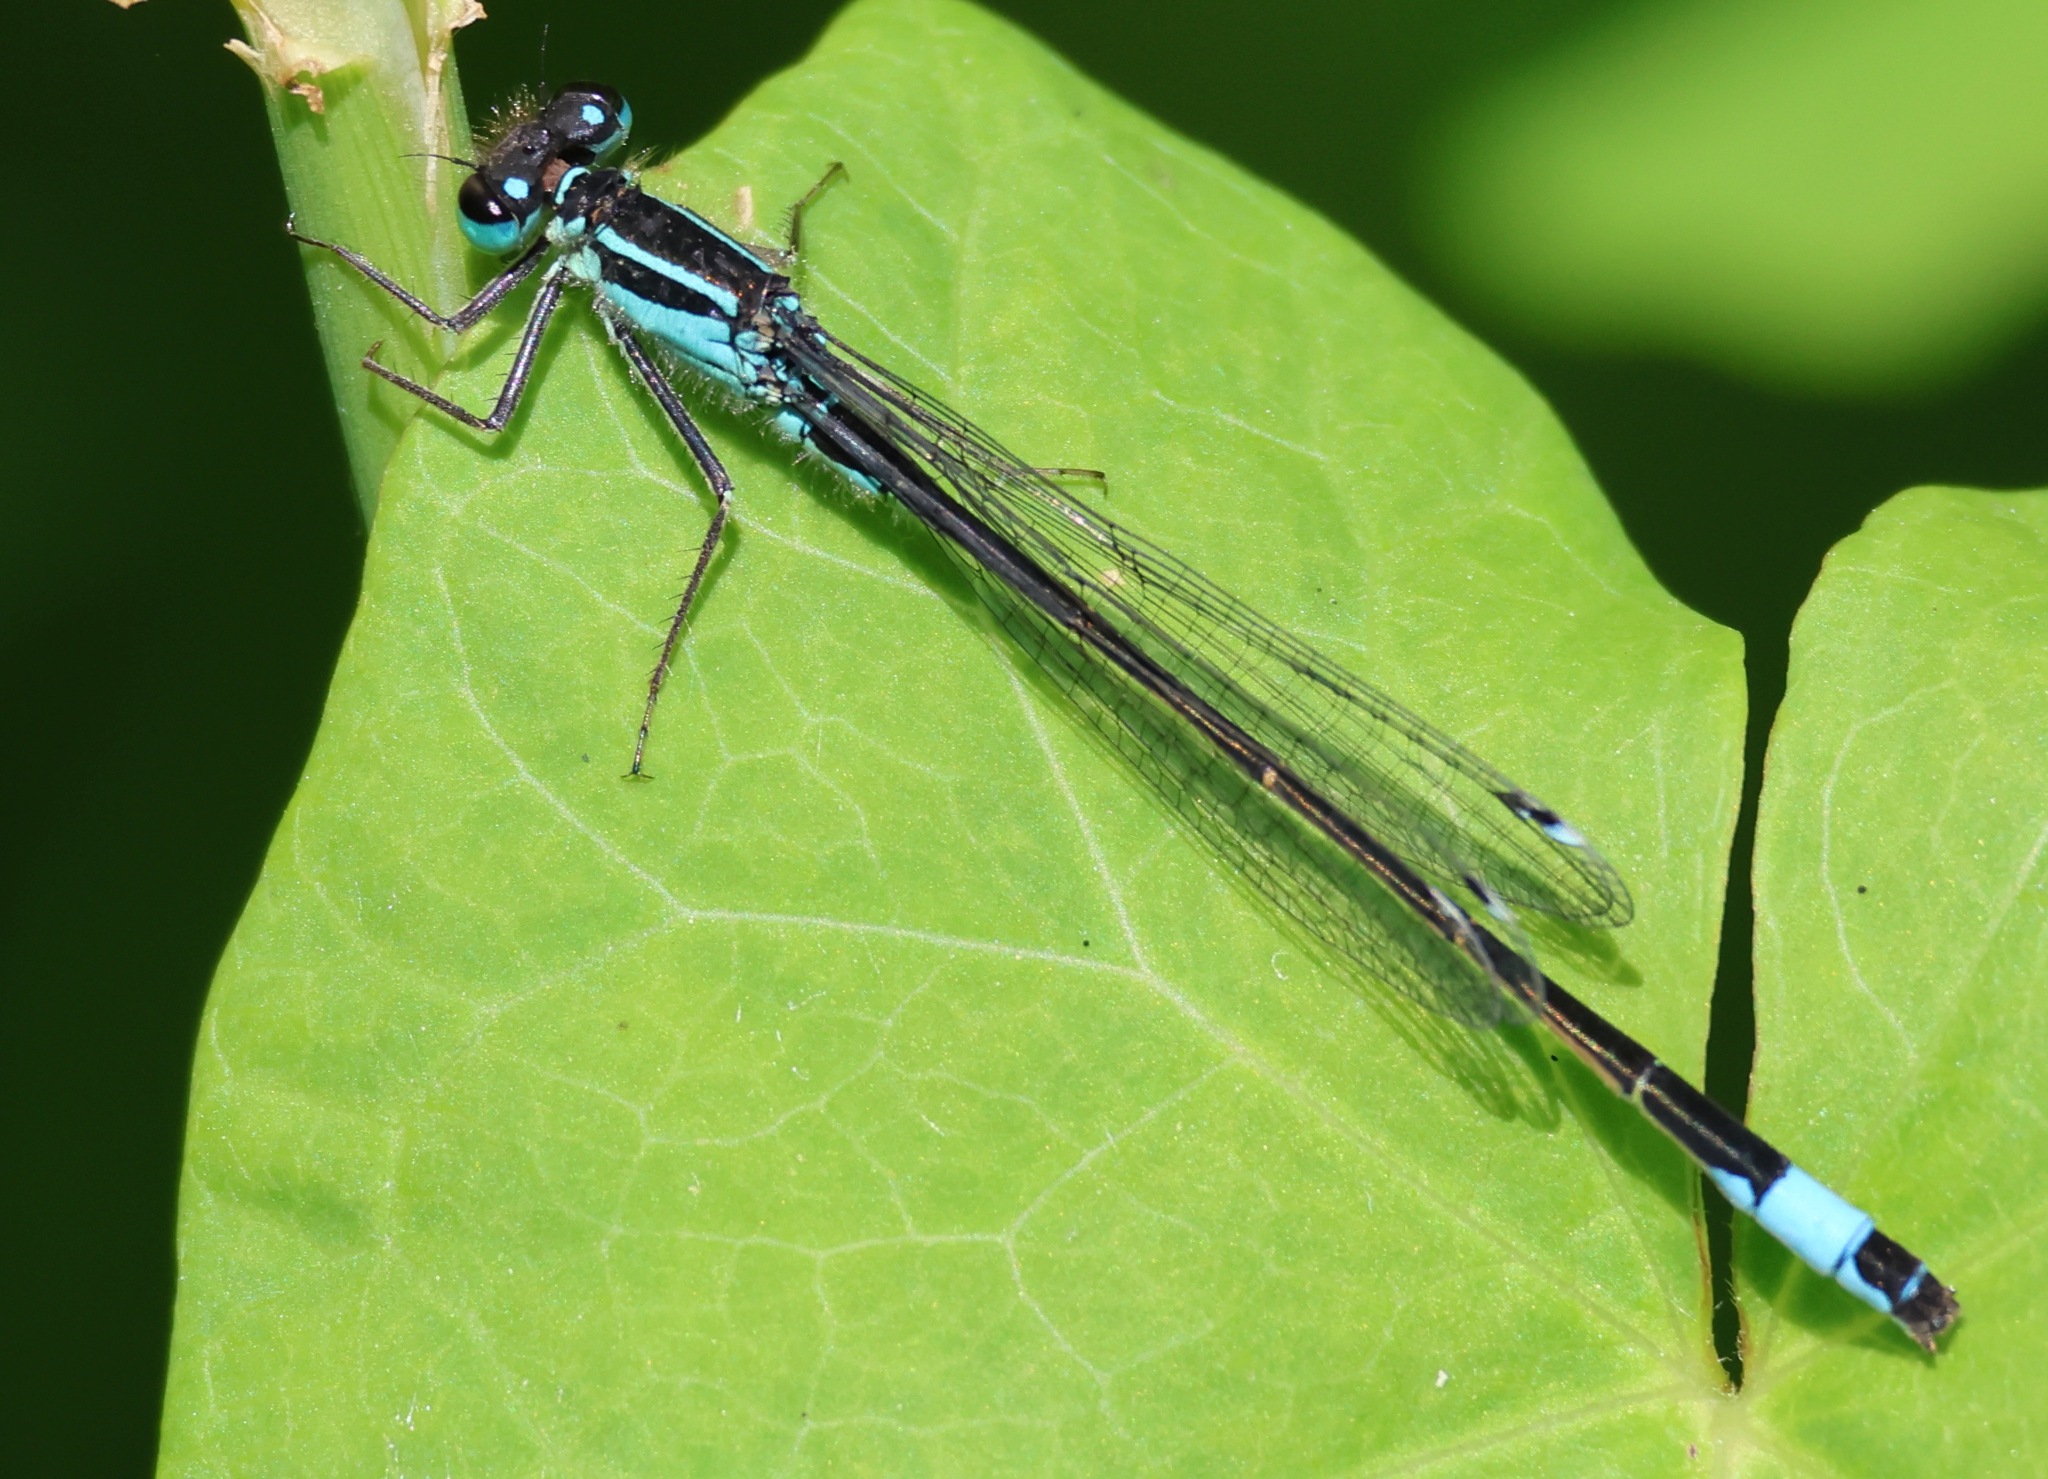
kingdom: Animalia
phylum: Arthropoda
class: Insecta
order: Odonata
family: Coenagrionidae
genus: Ischnura
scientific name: Ischnura elegans
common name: Blue-tailed damselfly
